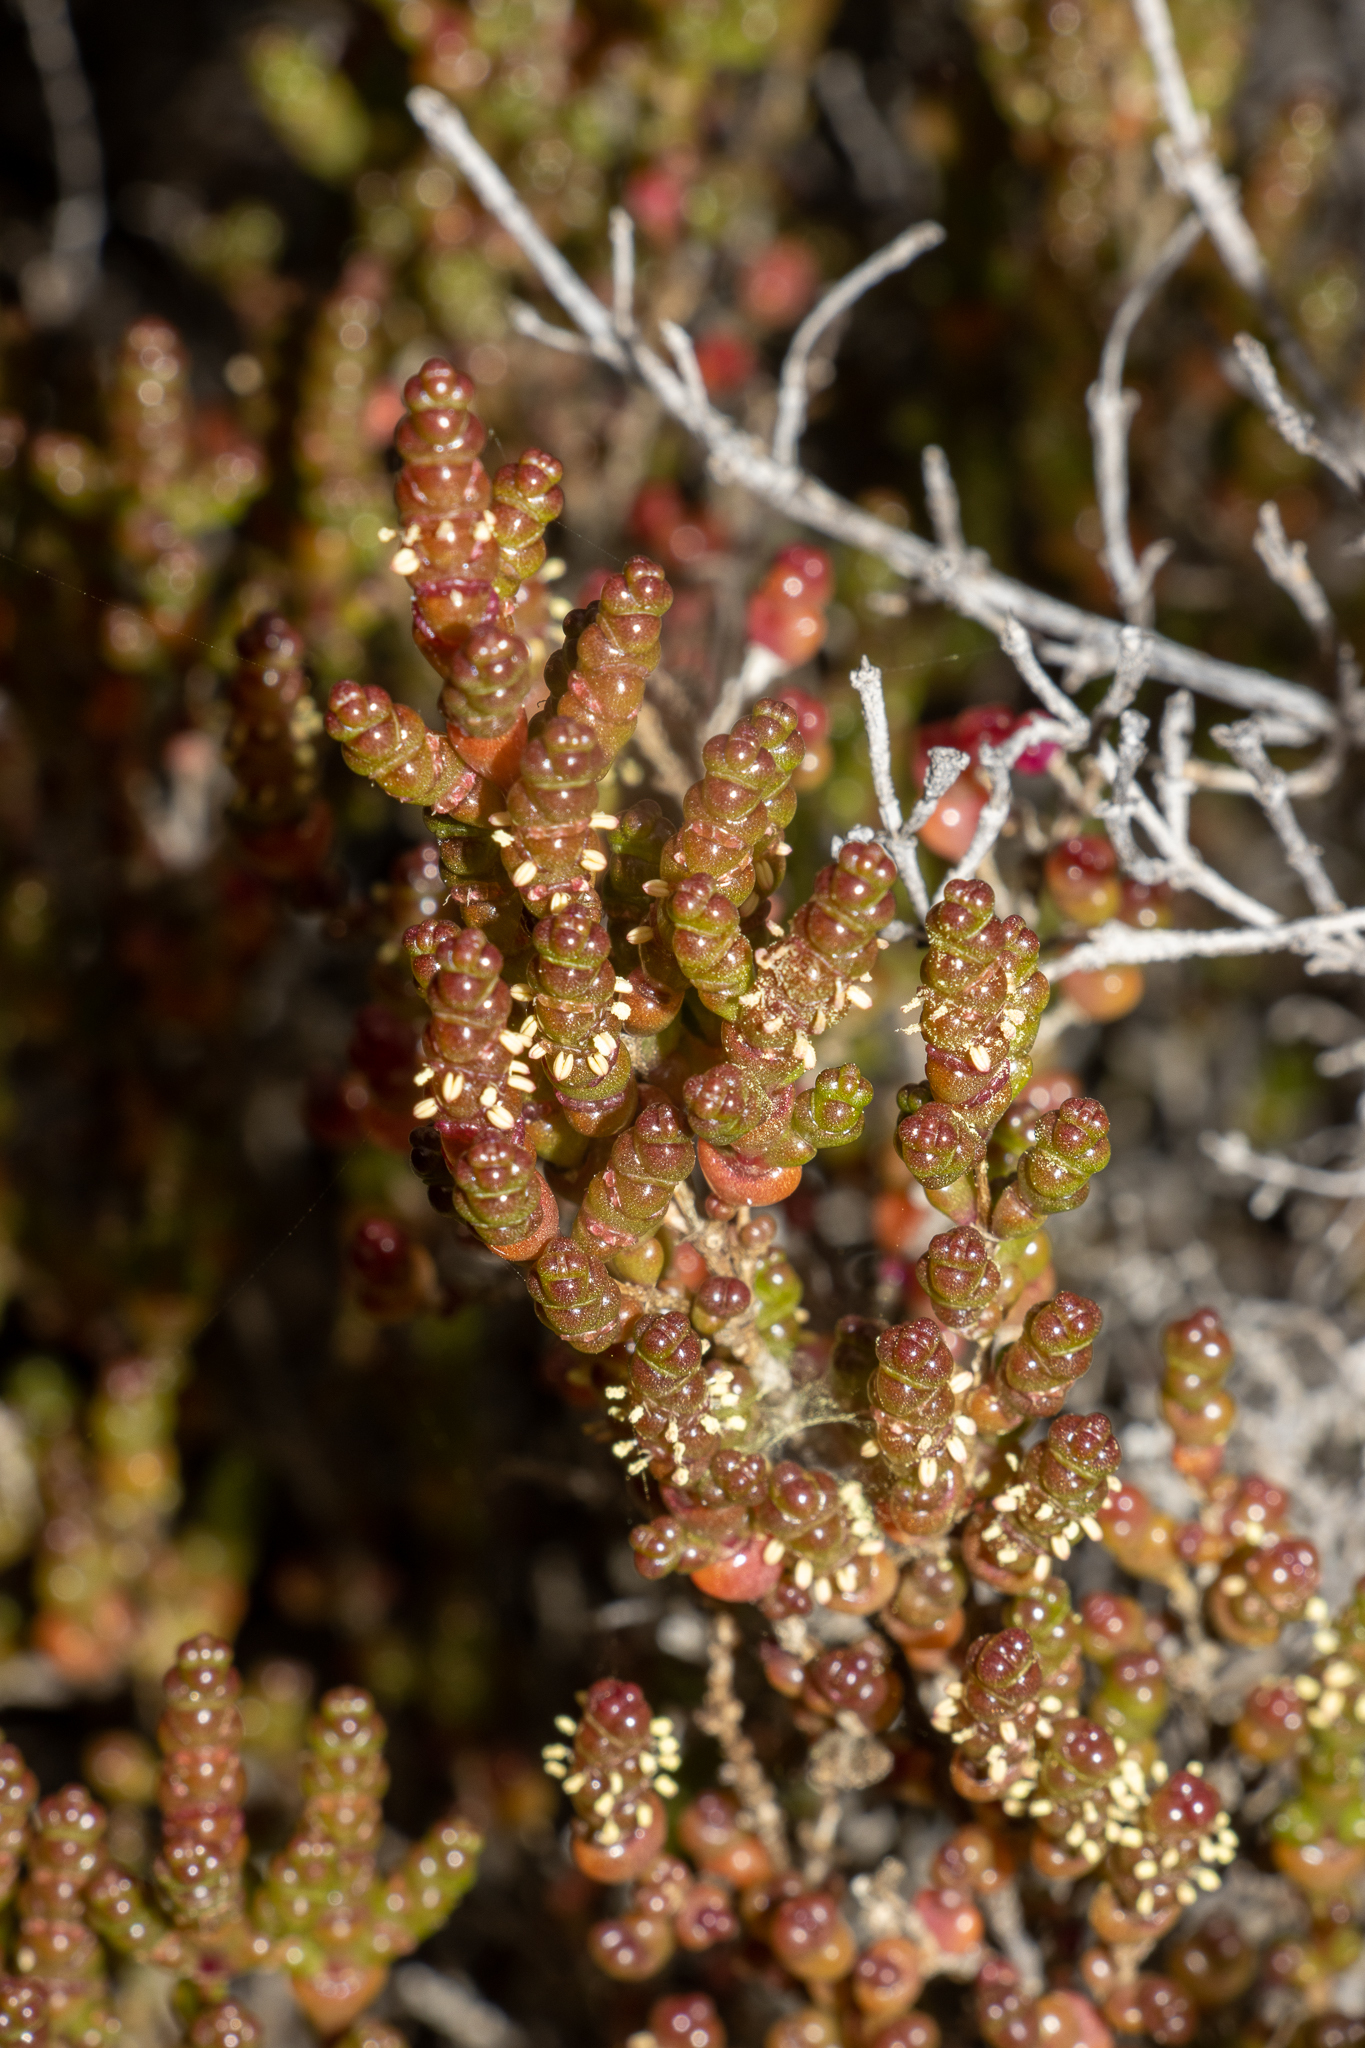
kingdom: Plantae
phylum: Tracheophyta
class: Magnoliopsida
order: Caryophyllales
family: Amaranthaceae
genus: Tecticornia
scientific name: Tecticornia halocnemoides
